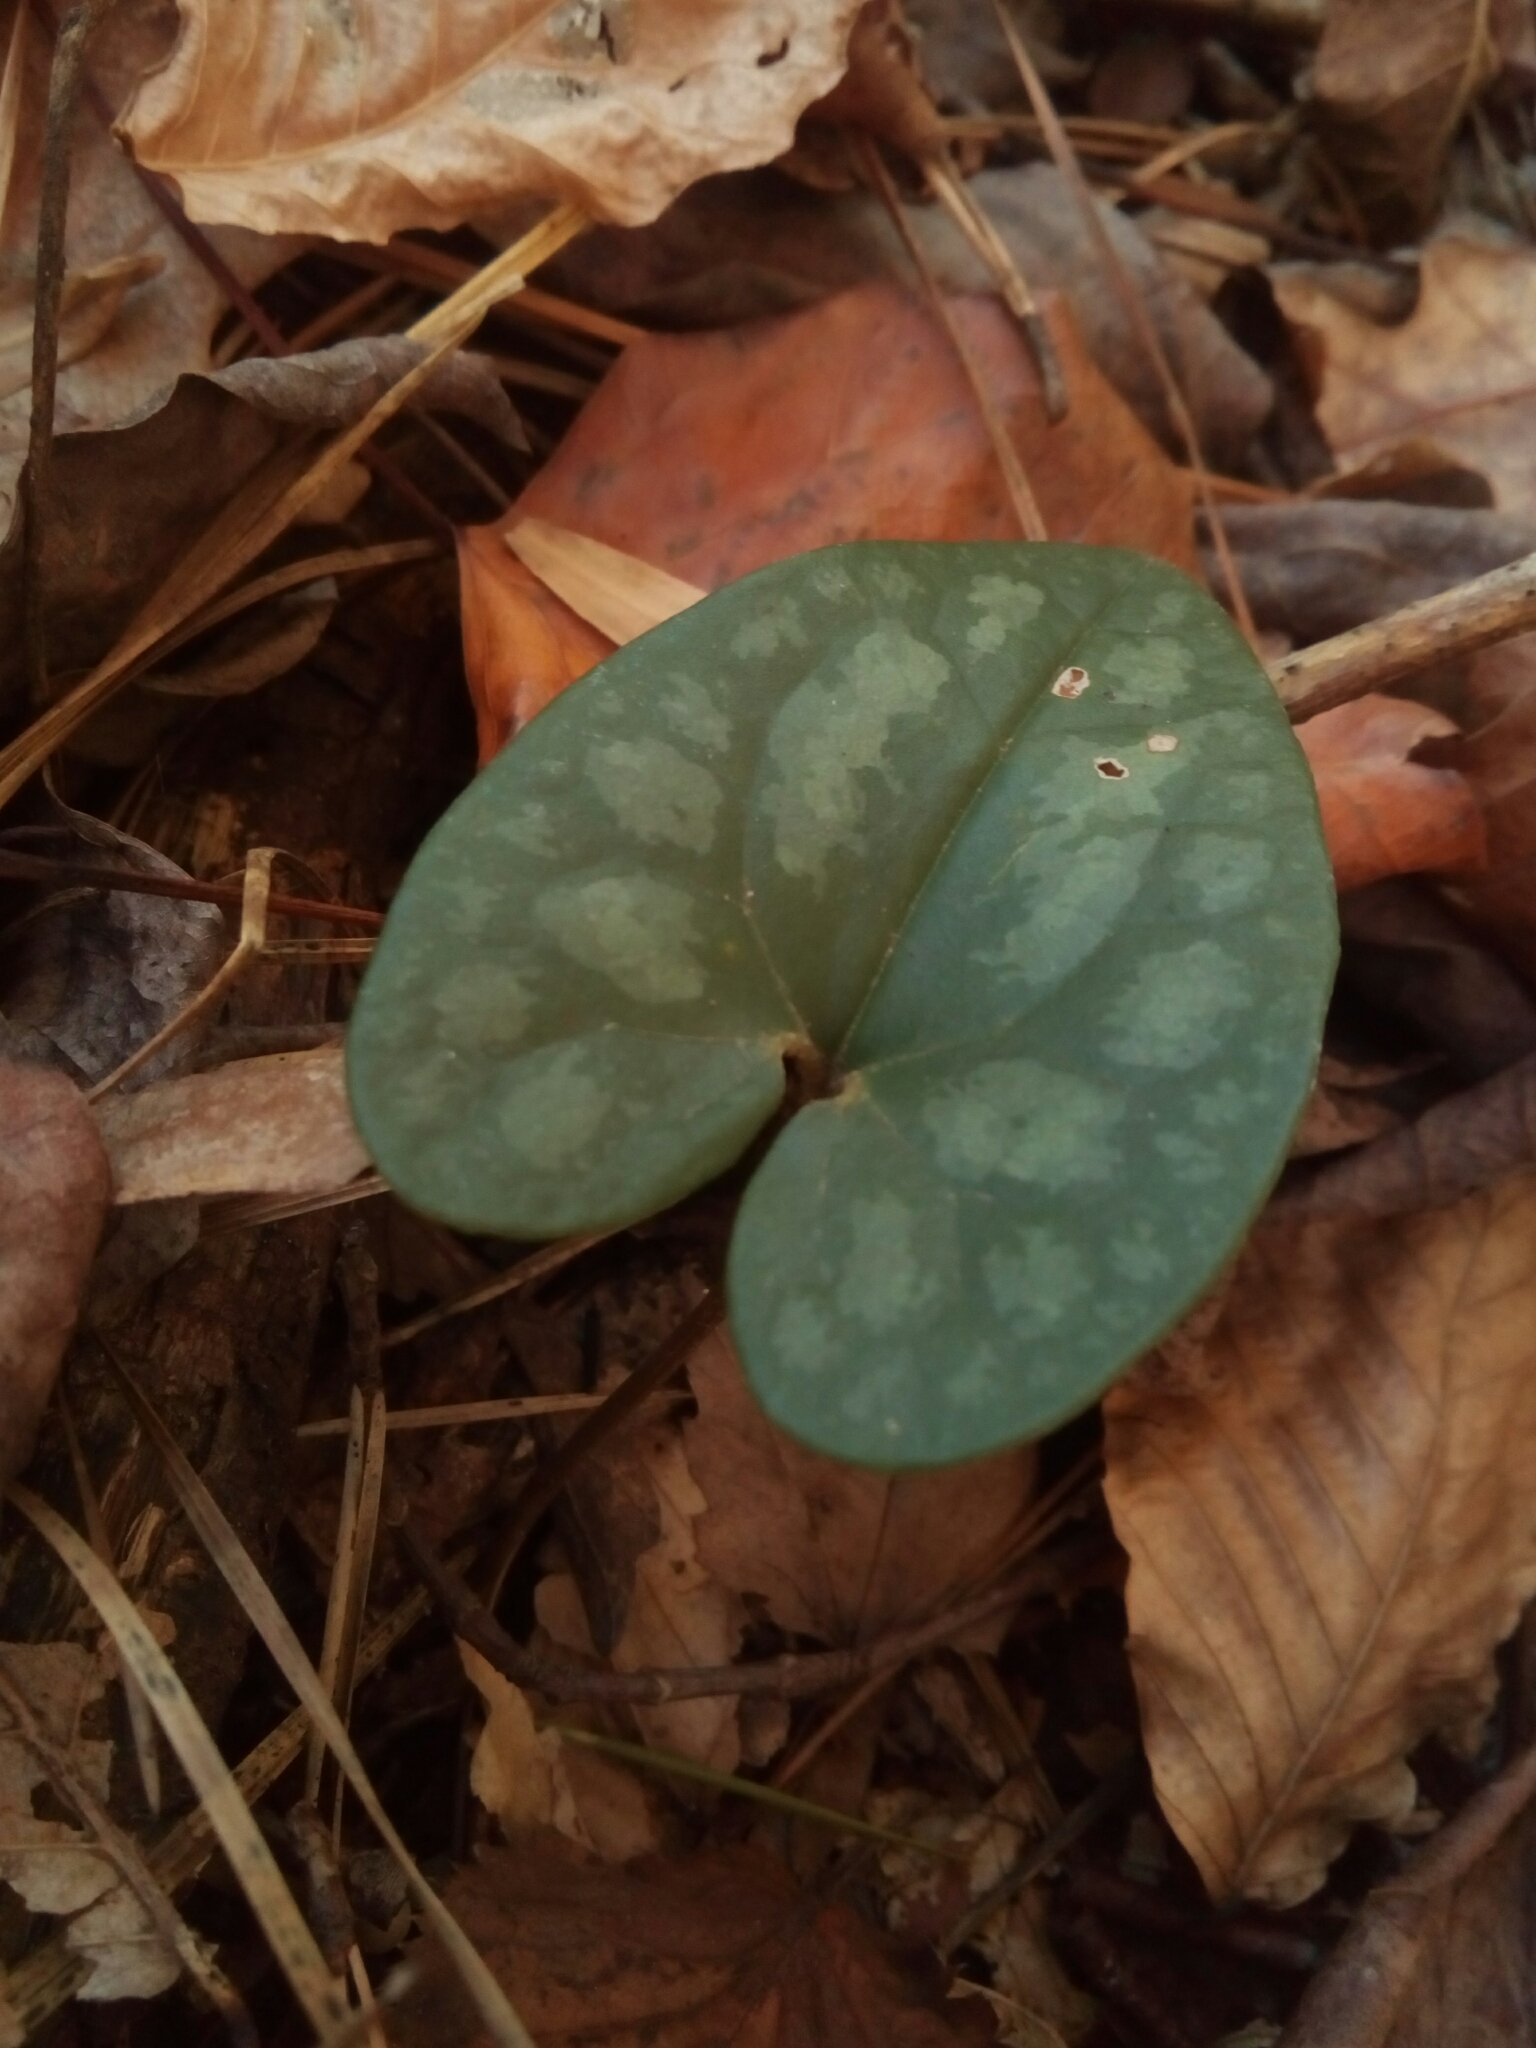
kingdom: Plantae
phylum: Tracheophyta
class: Magnoliopsida
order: Piperales
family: Aristolochiaceae
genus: Hexastylis
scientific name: Hexastylis arifolia
